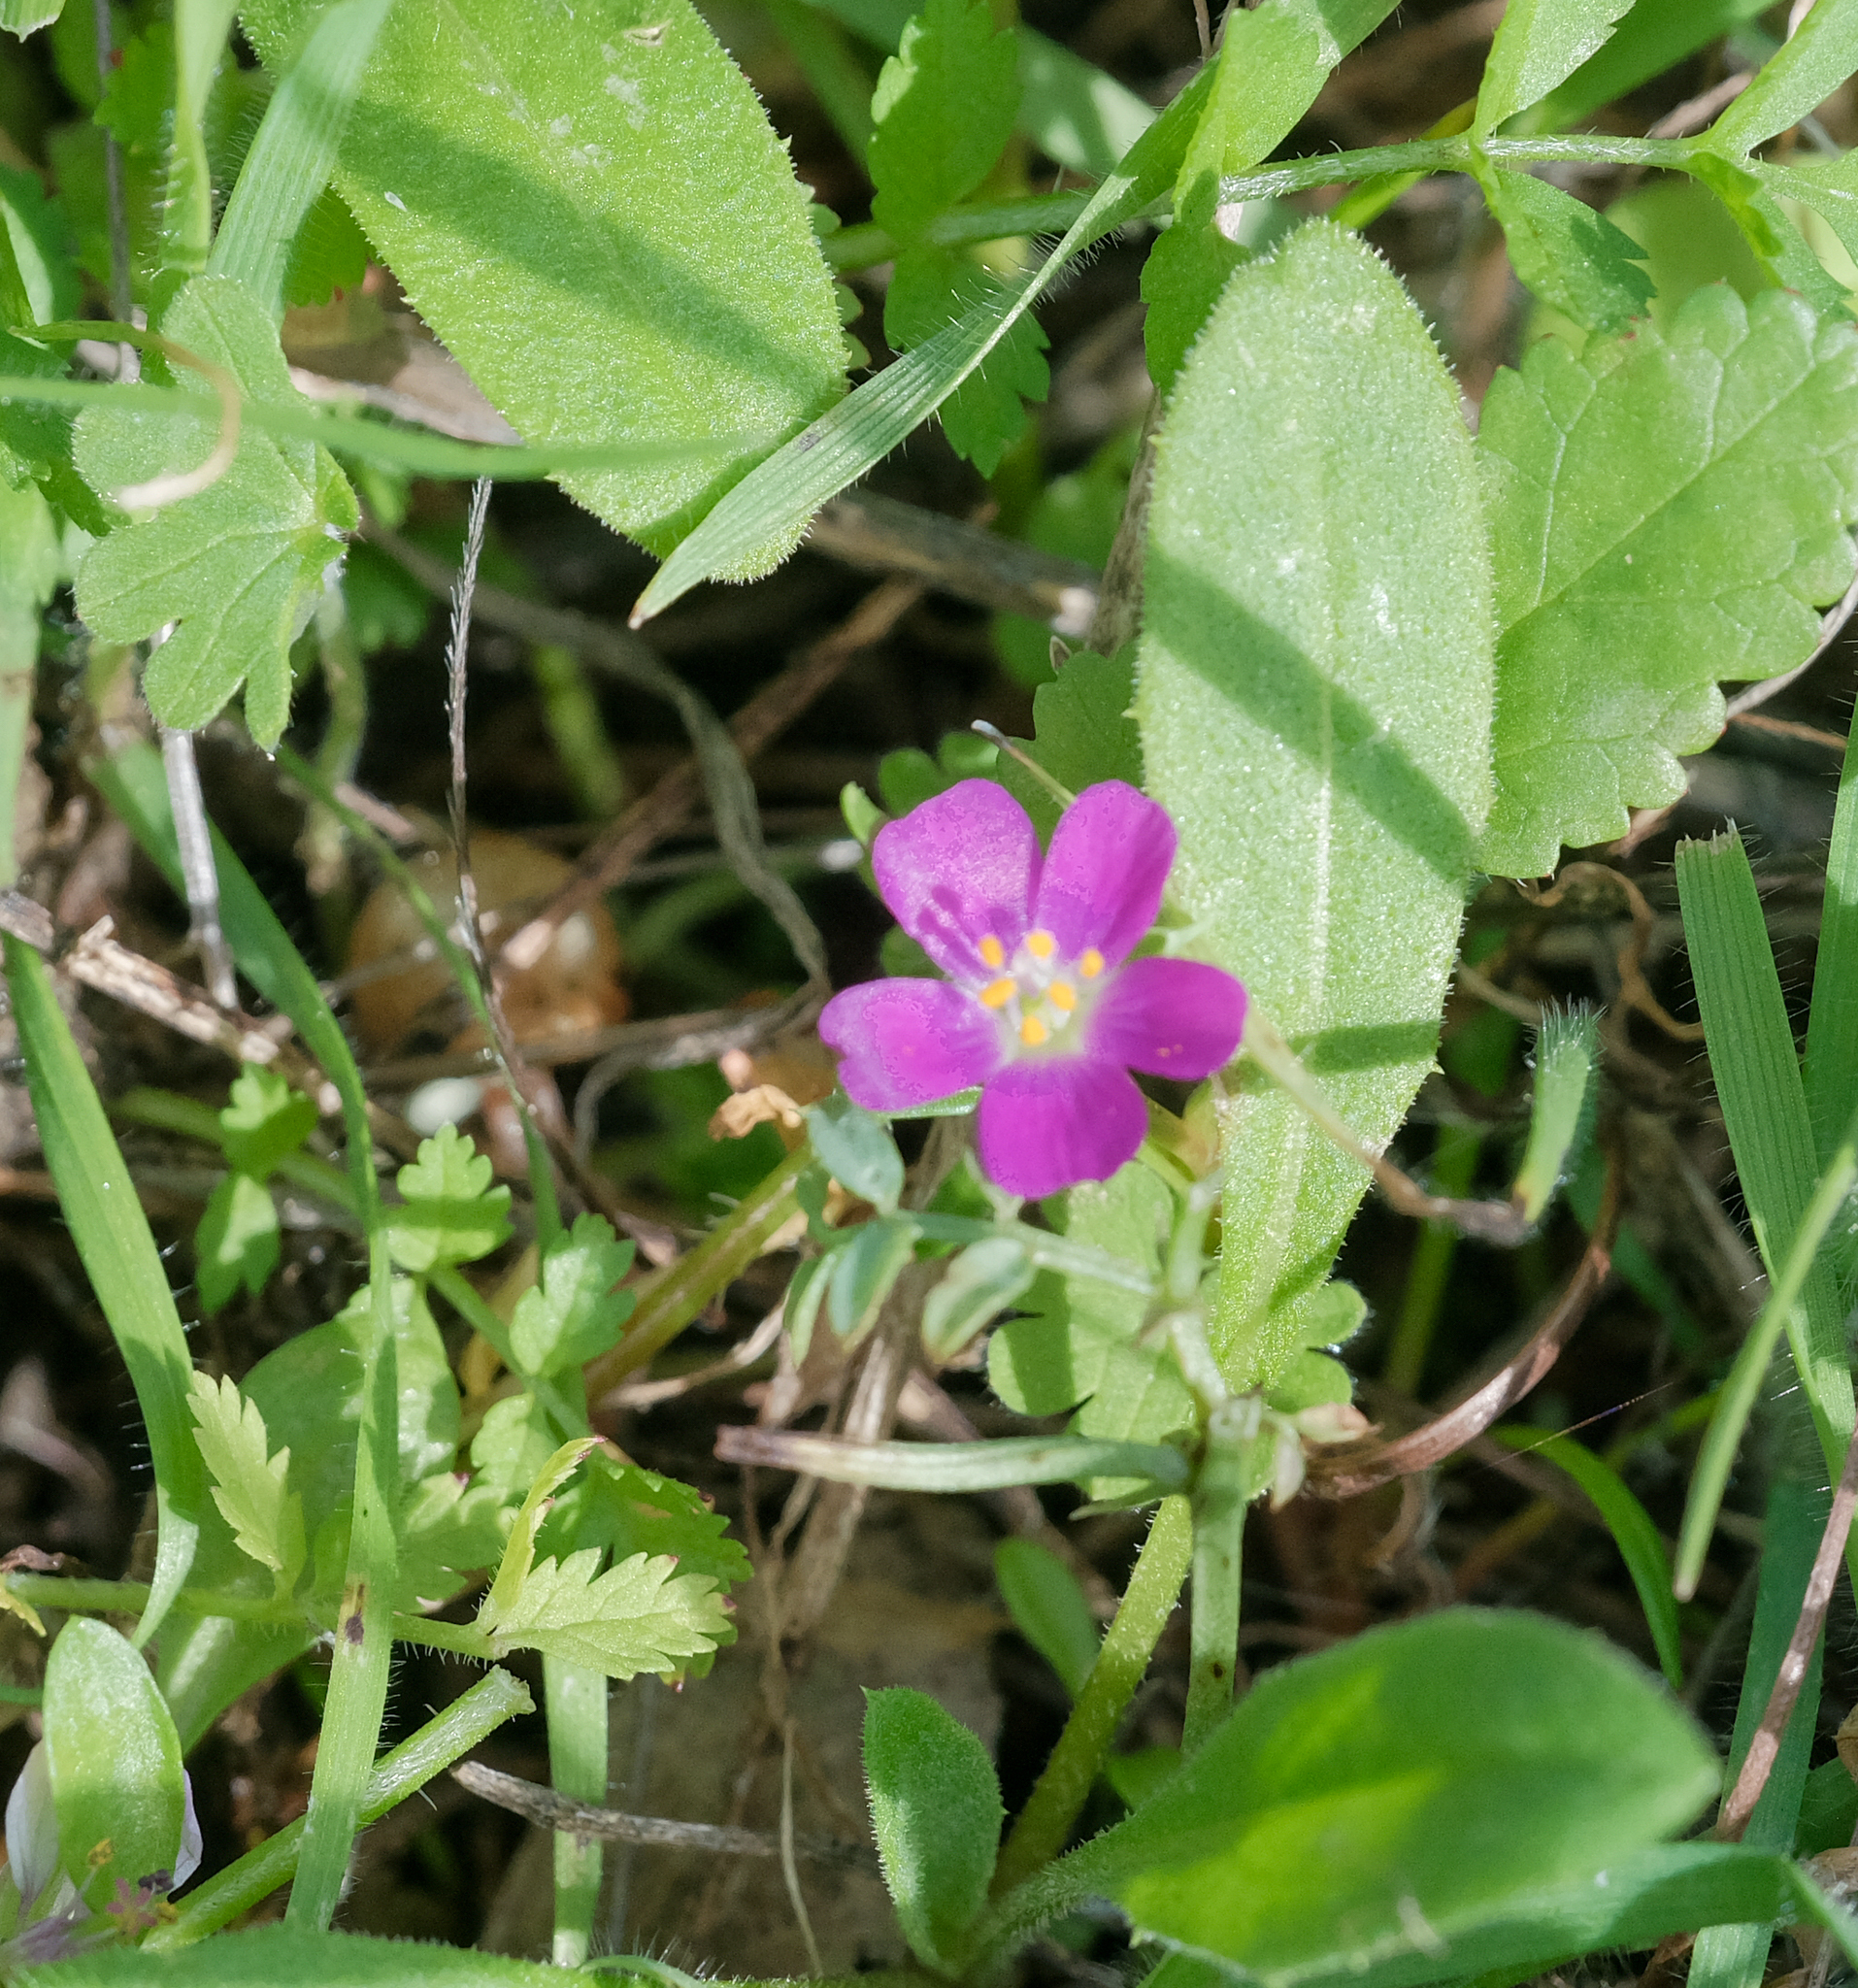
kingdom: Plantae
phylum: Tracheophyta
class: Magnoliopsida
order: Caryophyllales
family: Montiaceae
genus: Calandrinia
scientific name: Calandrinia menziesii
